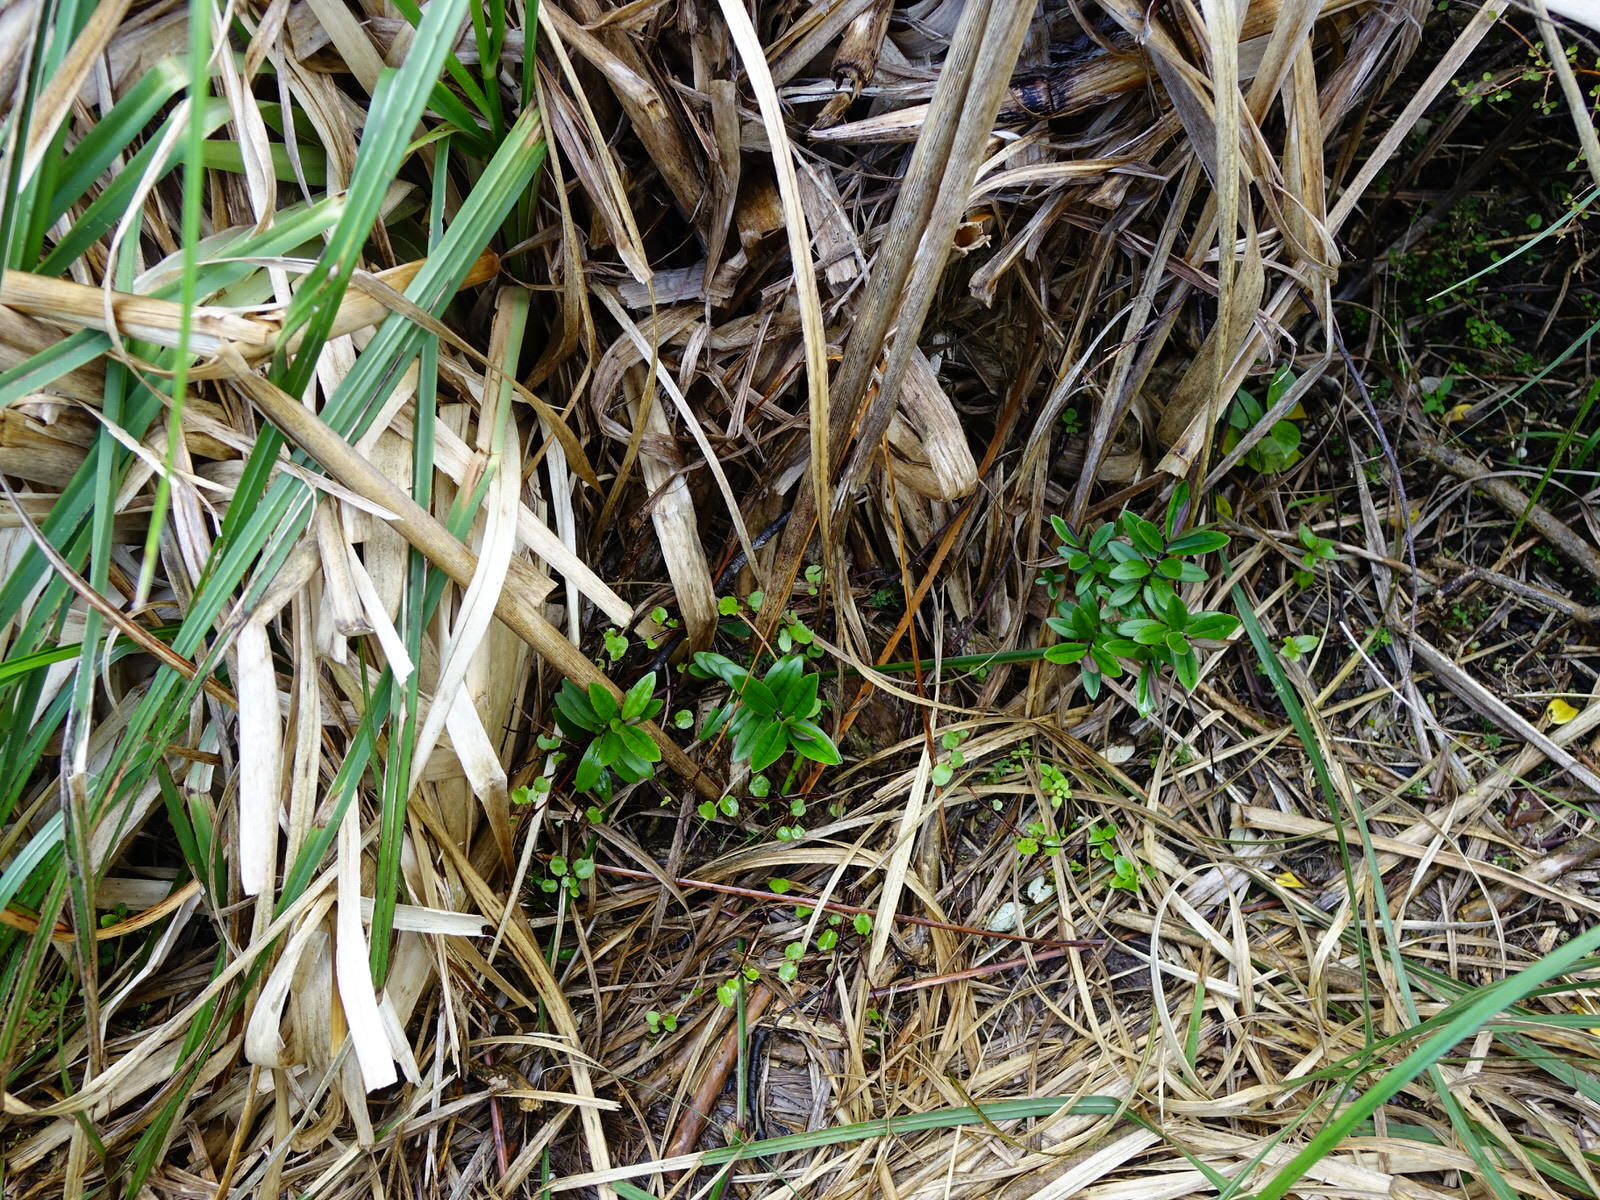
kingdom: Plantae
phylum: Tracheophyta
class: Magnoliopsida
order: Lamiales
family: Plantaginaceae
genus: Veronica
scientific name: Veronica obtusata
